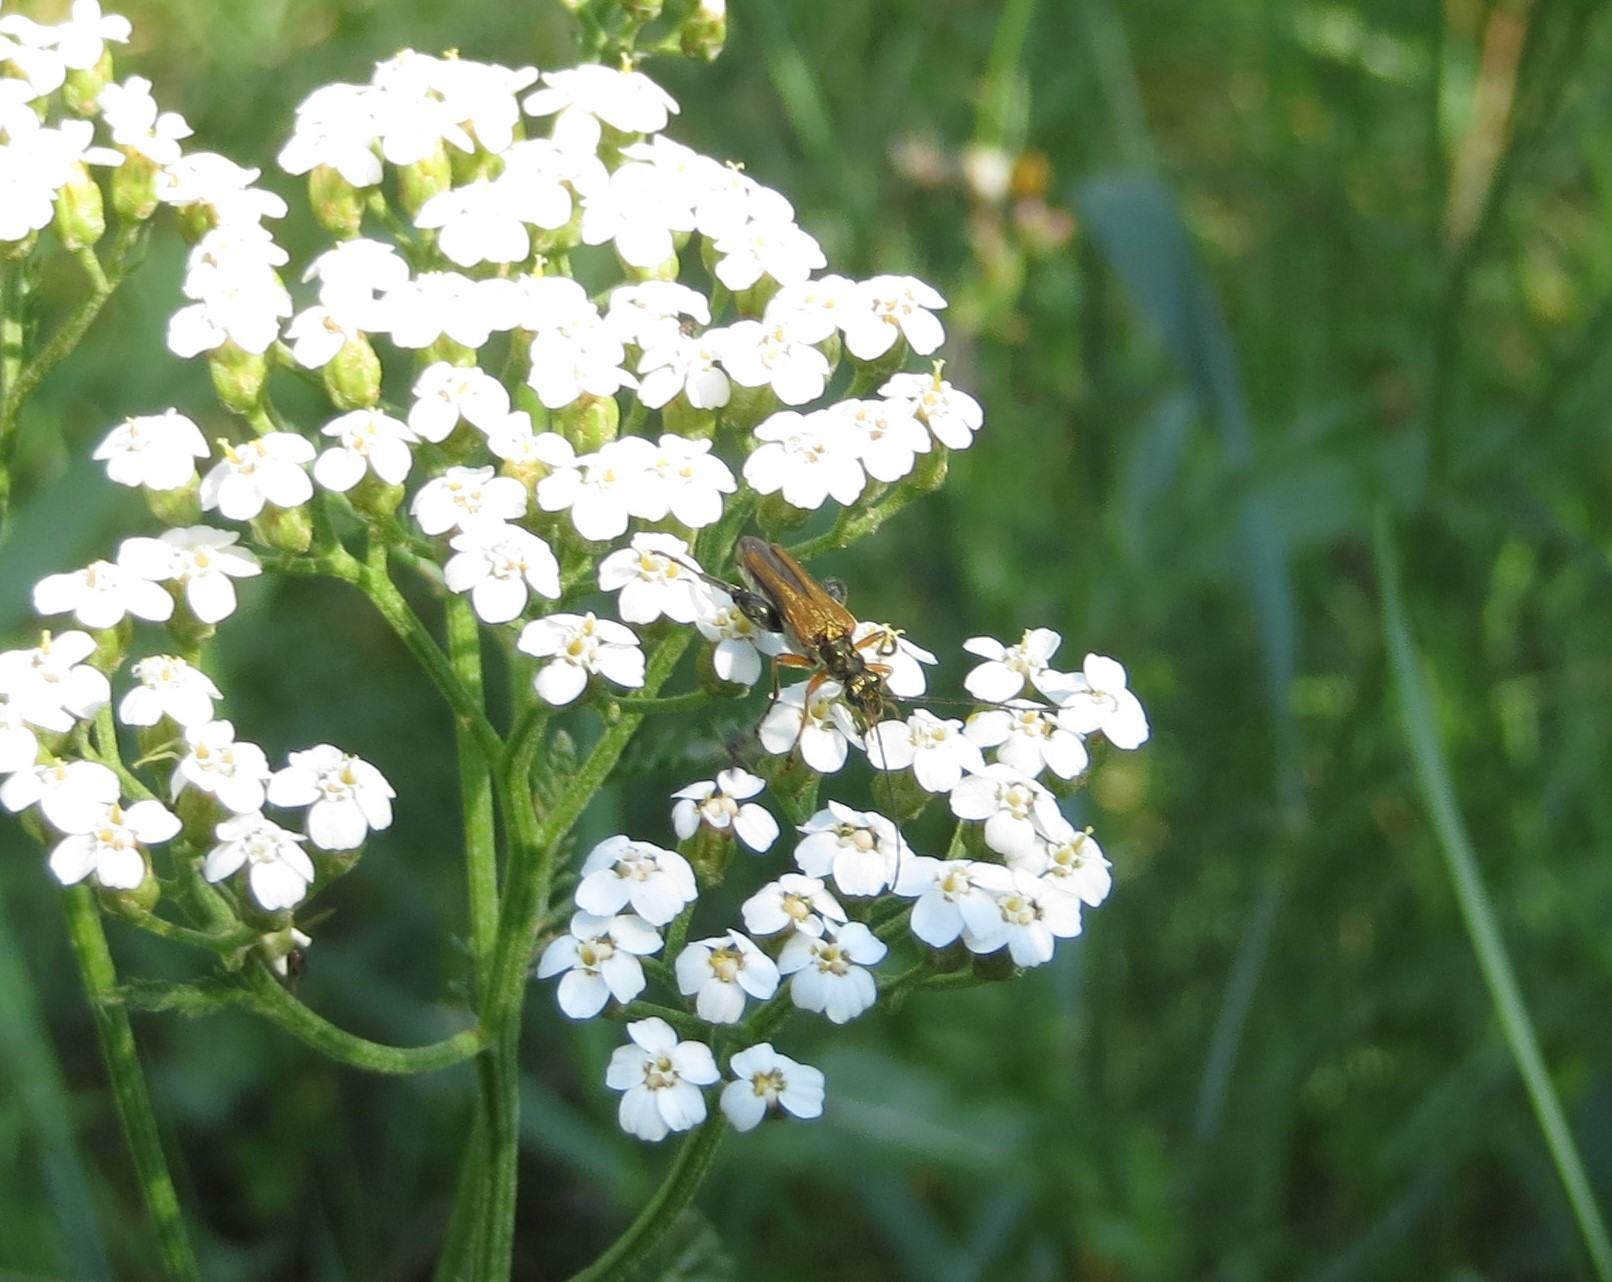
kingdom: Animalia
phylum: Arthropoda
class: Insecta
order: Coleoptera
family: Oedemeridae
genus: Oedemera
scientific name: Oedemera podagrariae
